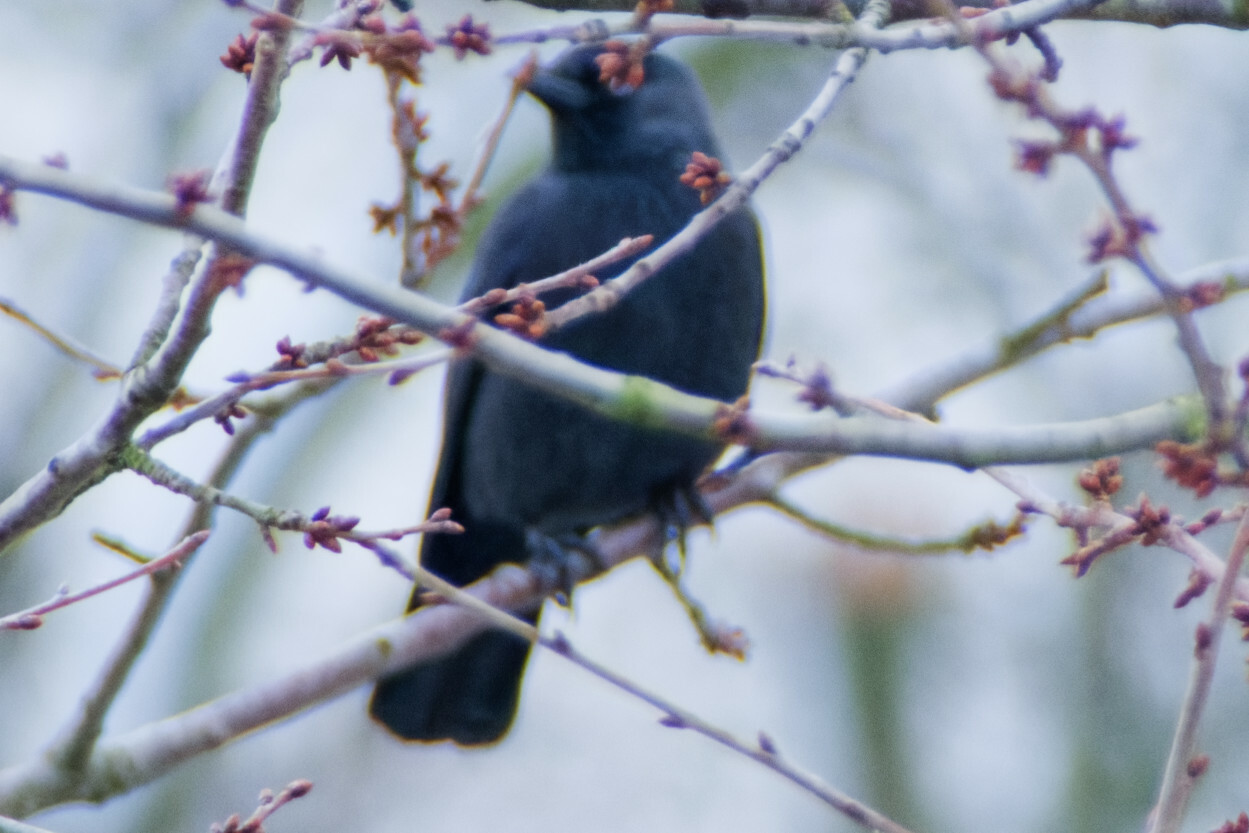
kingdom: Animalia
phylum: Chordata
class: Aves
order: Passeriformes
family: Corvidae
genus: Coloeus
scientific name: Coloeus monedula
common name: Western jackdaw
